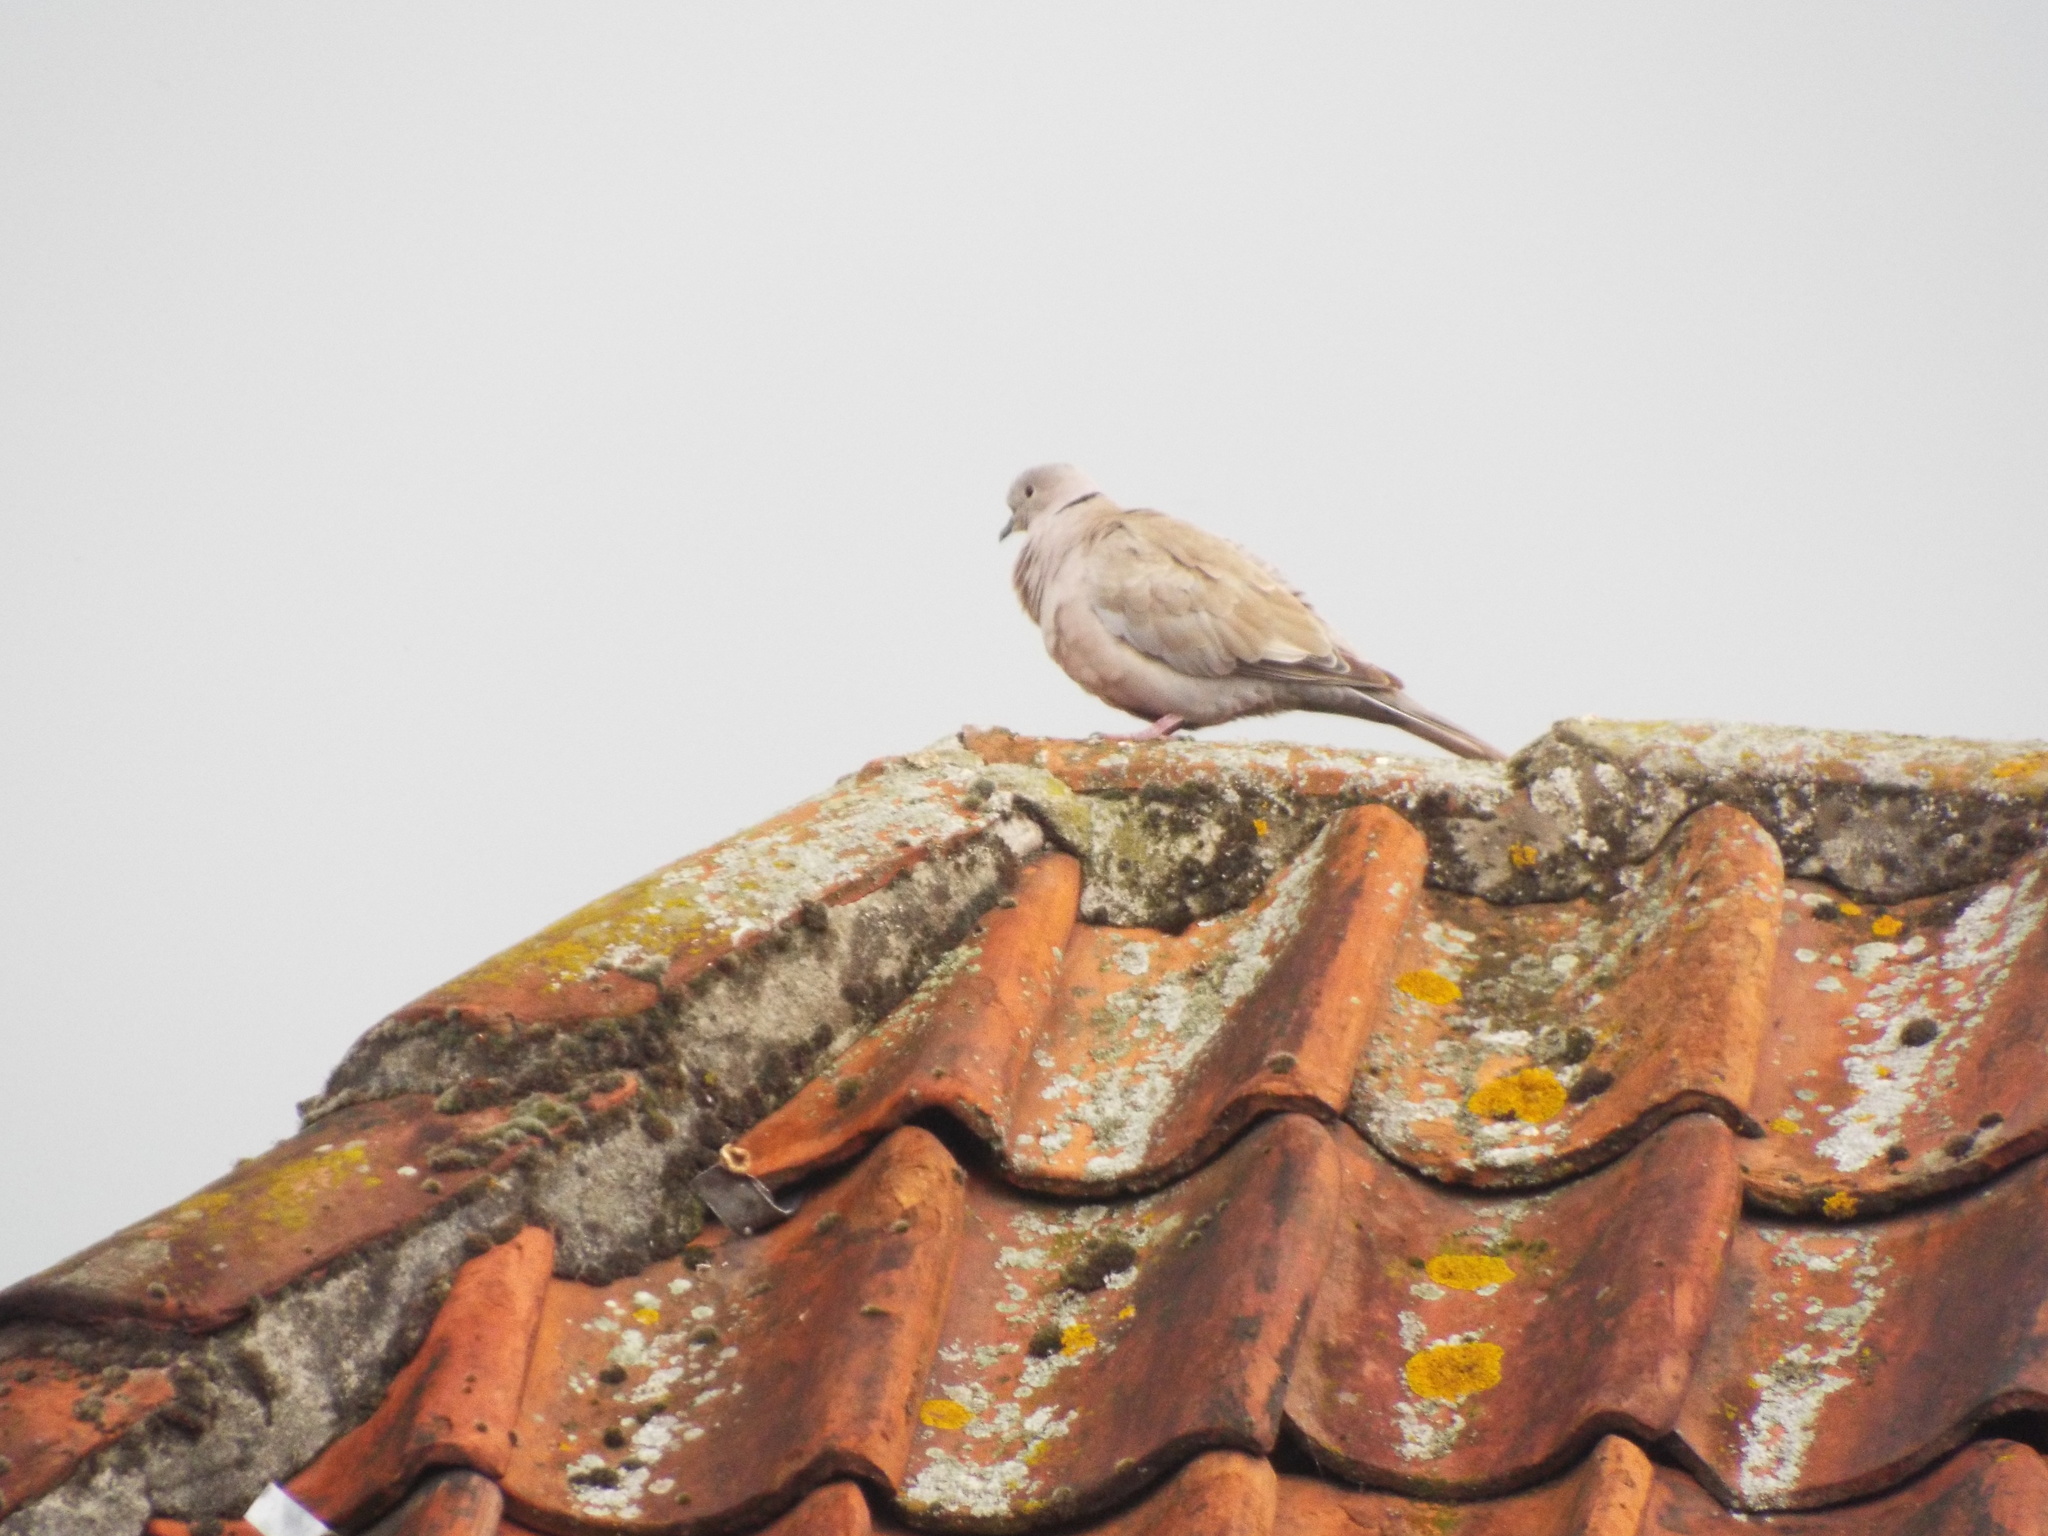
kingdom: Animalia
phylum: Chordata
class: Aves
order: Columbiformes
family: Columbidae
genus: Streptopelia
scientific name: Streptopelia decaocto
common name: Eurasian collared dove
